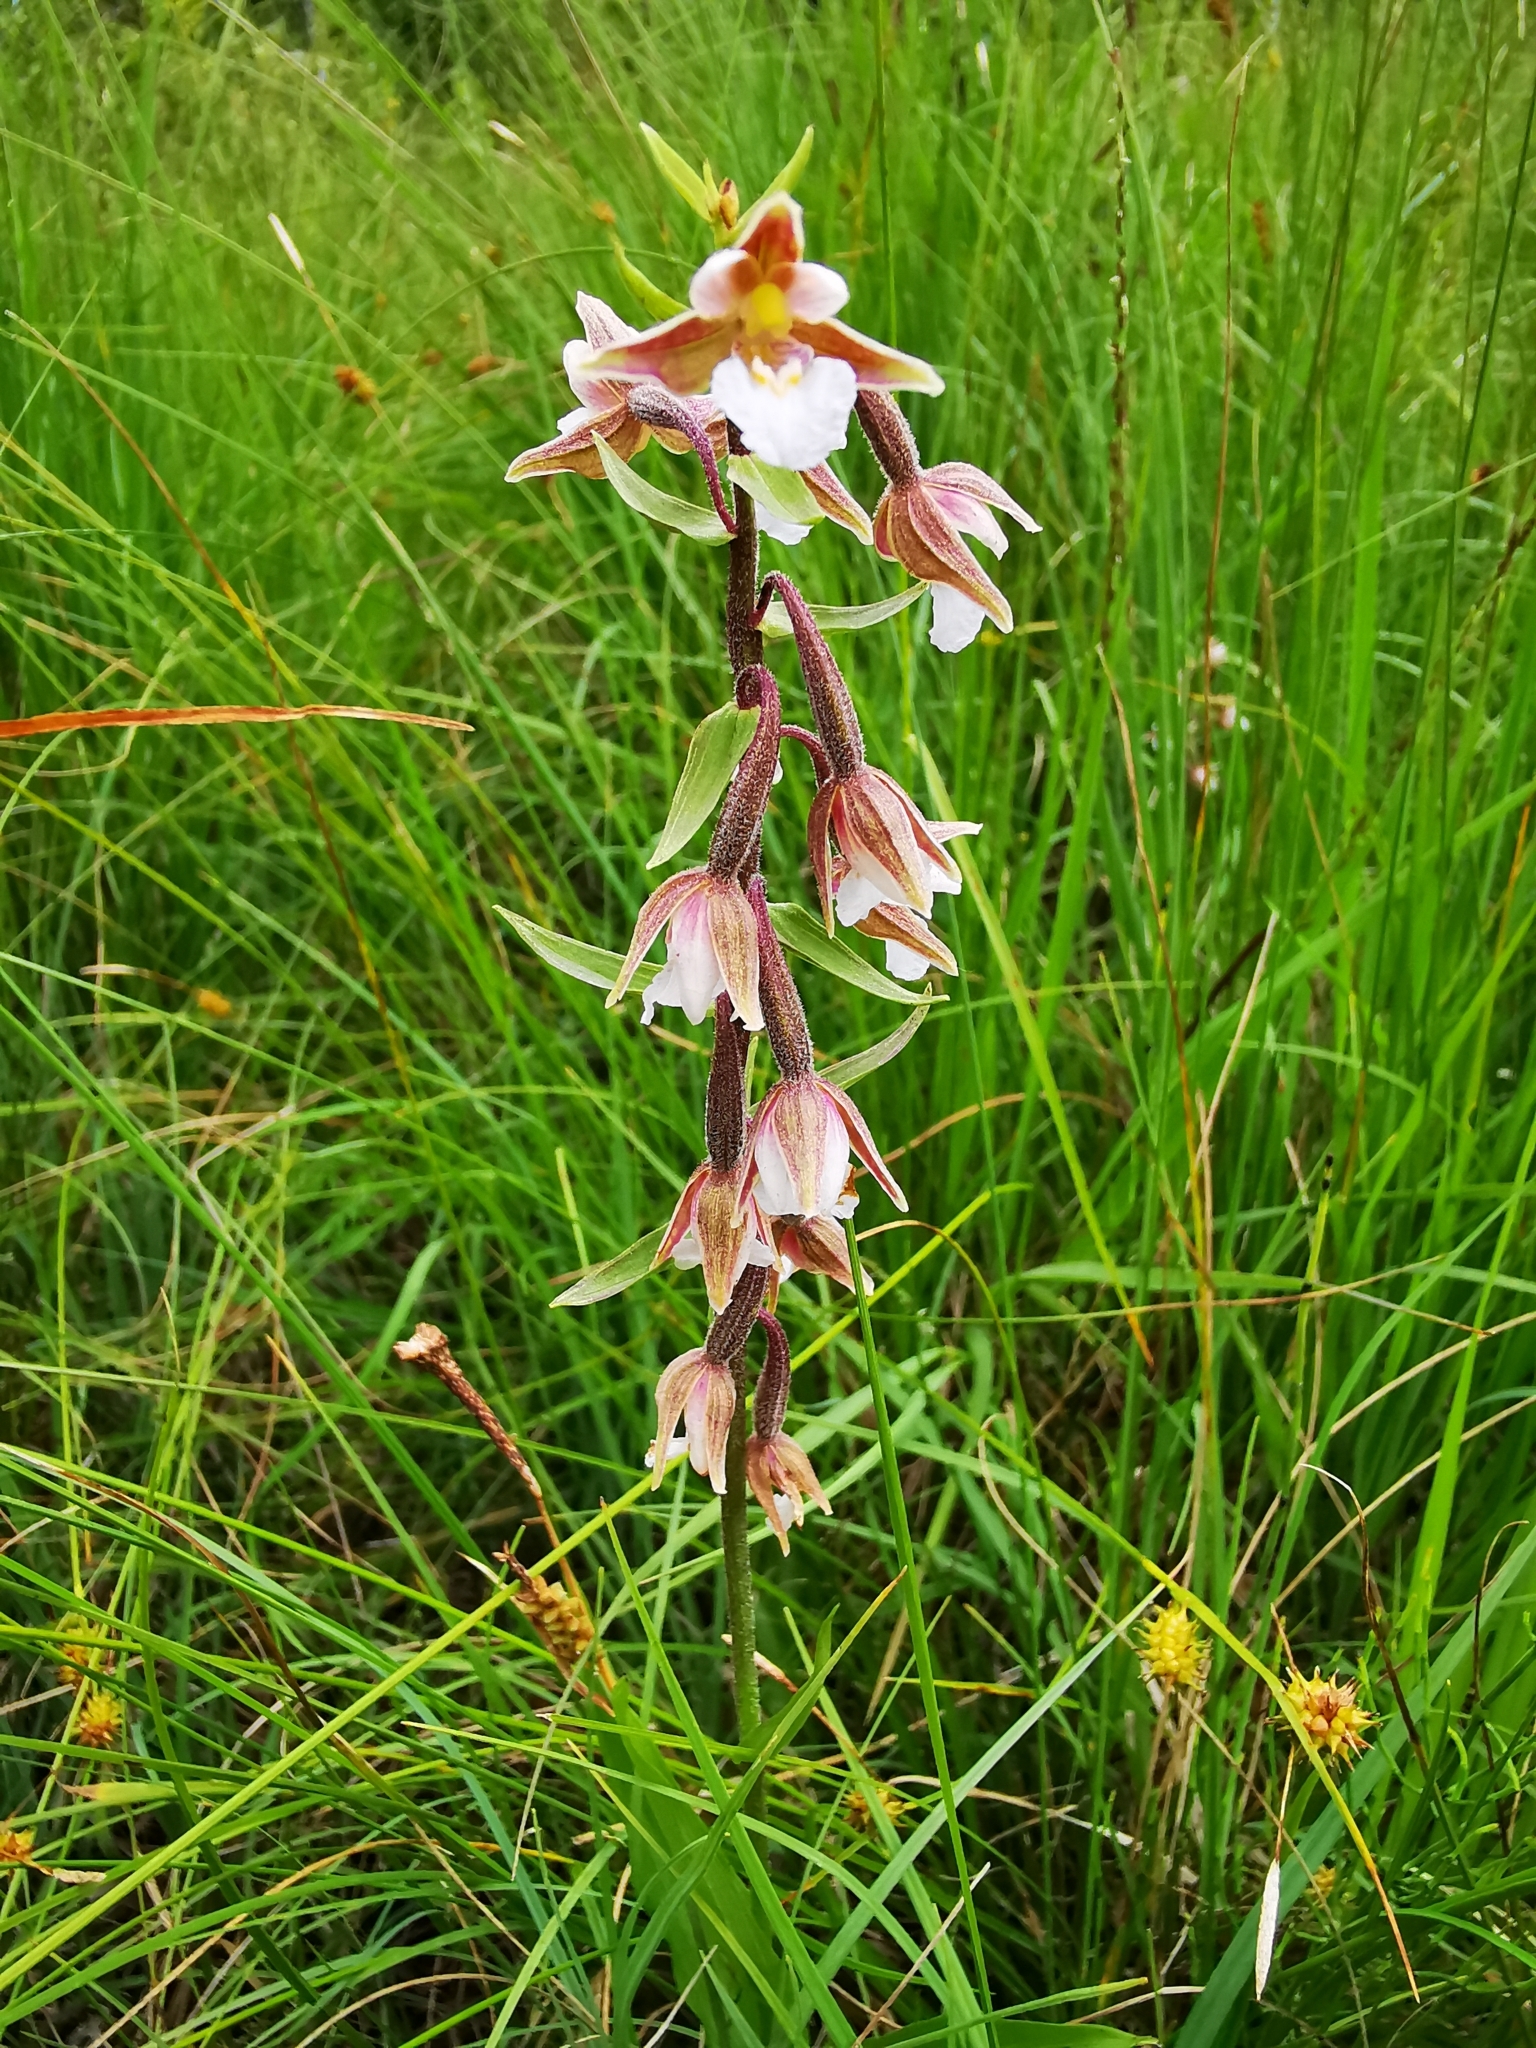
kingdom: Plantae
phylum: Tracheophyta
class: Liliopsida
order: Asparagales
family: Orchidaceae
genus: Epipactis
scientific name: Epipactis palustris
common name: Marsh helleborine
